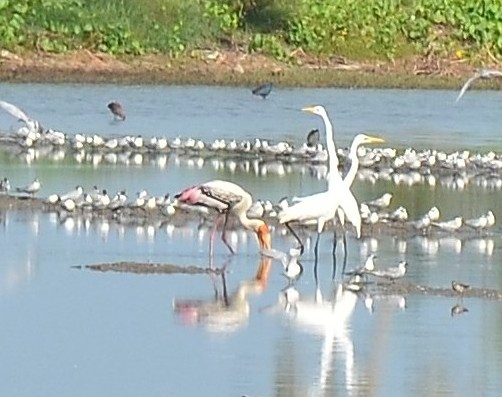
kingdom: Animalia
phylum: Chordata
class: Aves
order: Ciconiiformes
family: Ciconiidae
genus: Mycteria
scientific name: Mycteria leucocephala
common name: Painted stork
